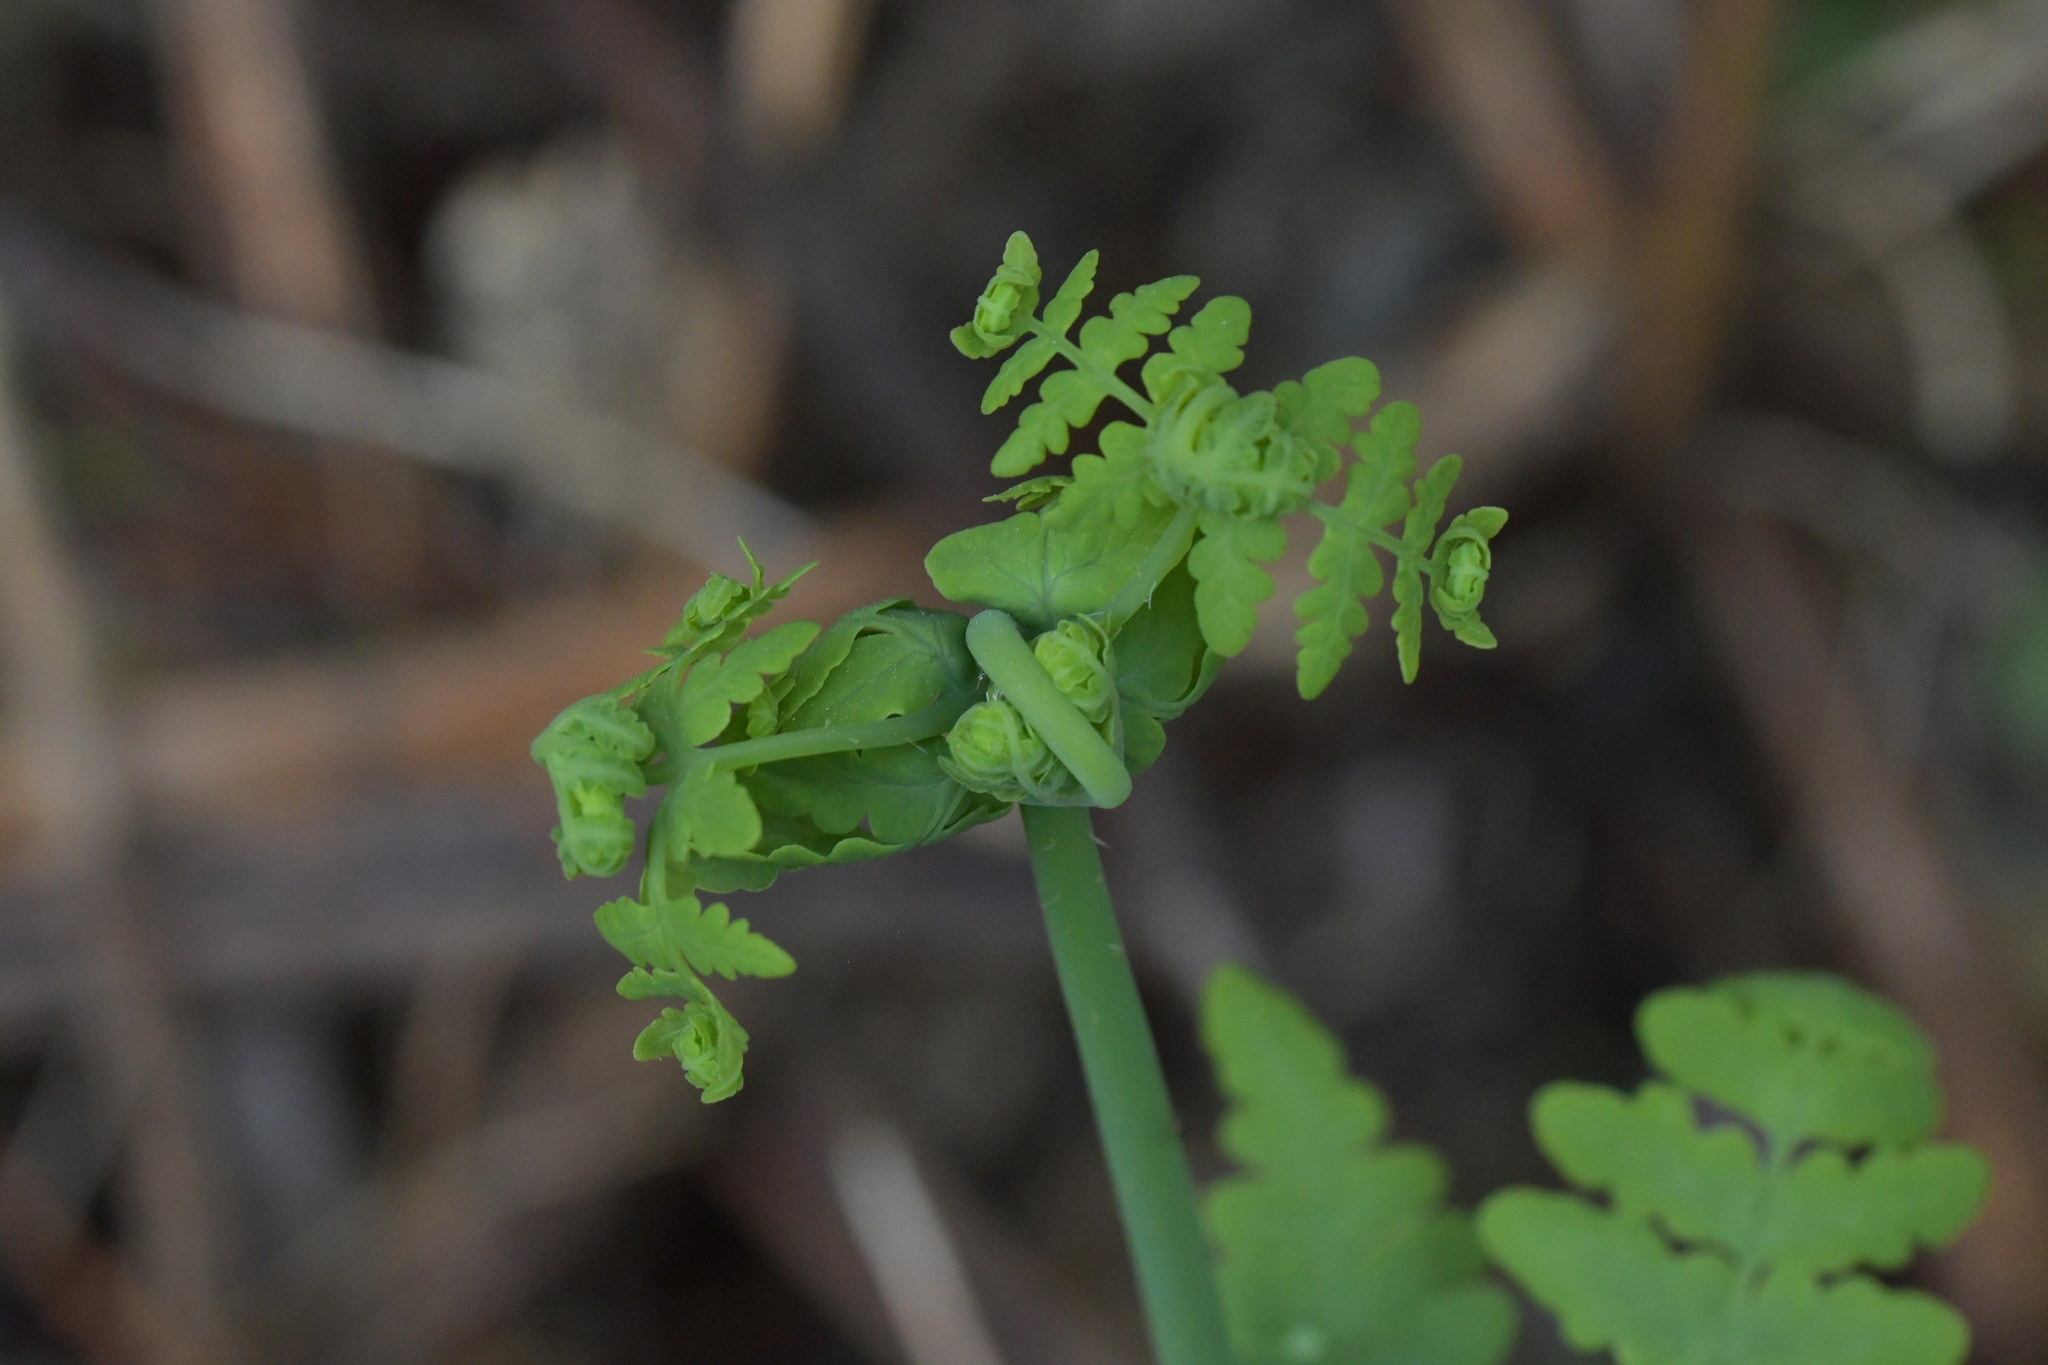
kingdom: Plantae
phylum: Tracheophyta
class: Polypodiopsida
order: Polypodiales
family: Dennstaedtiaceae
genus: Histiopteris
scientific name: Histiopteris incisa
